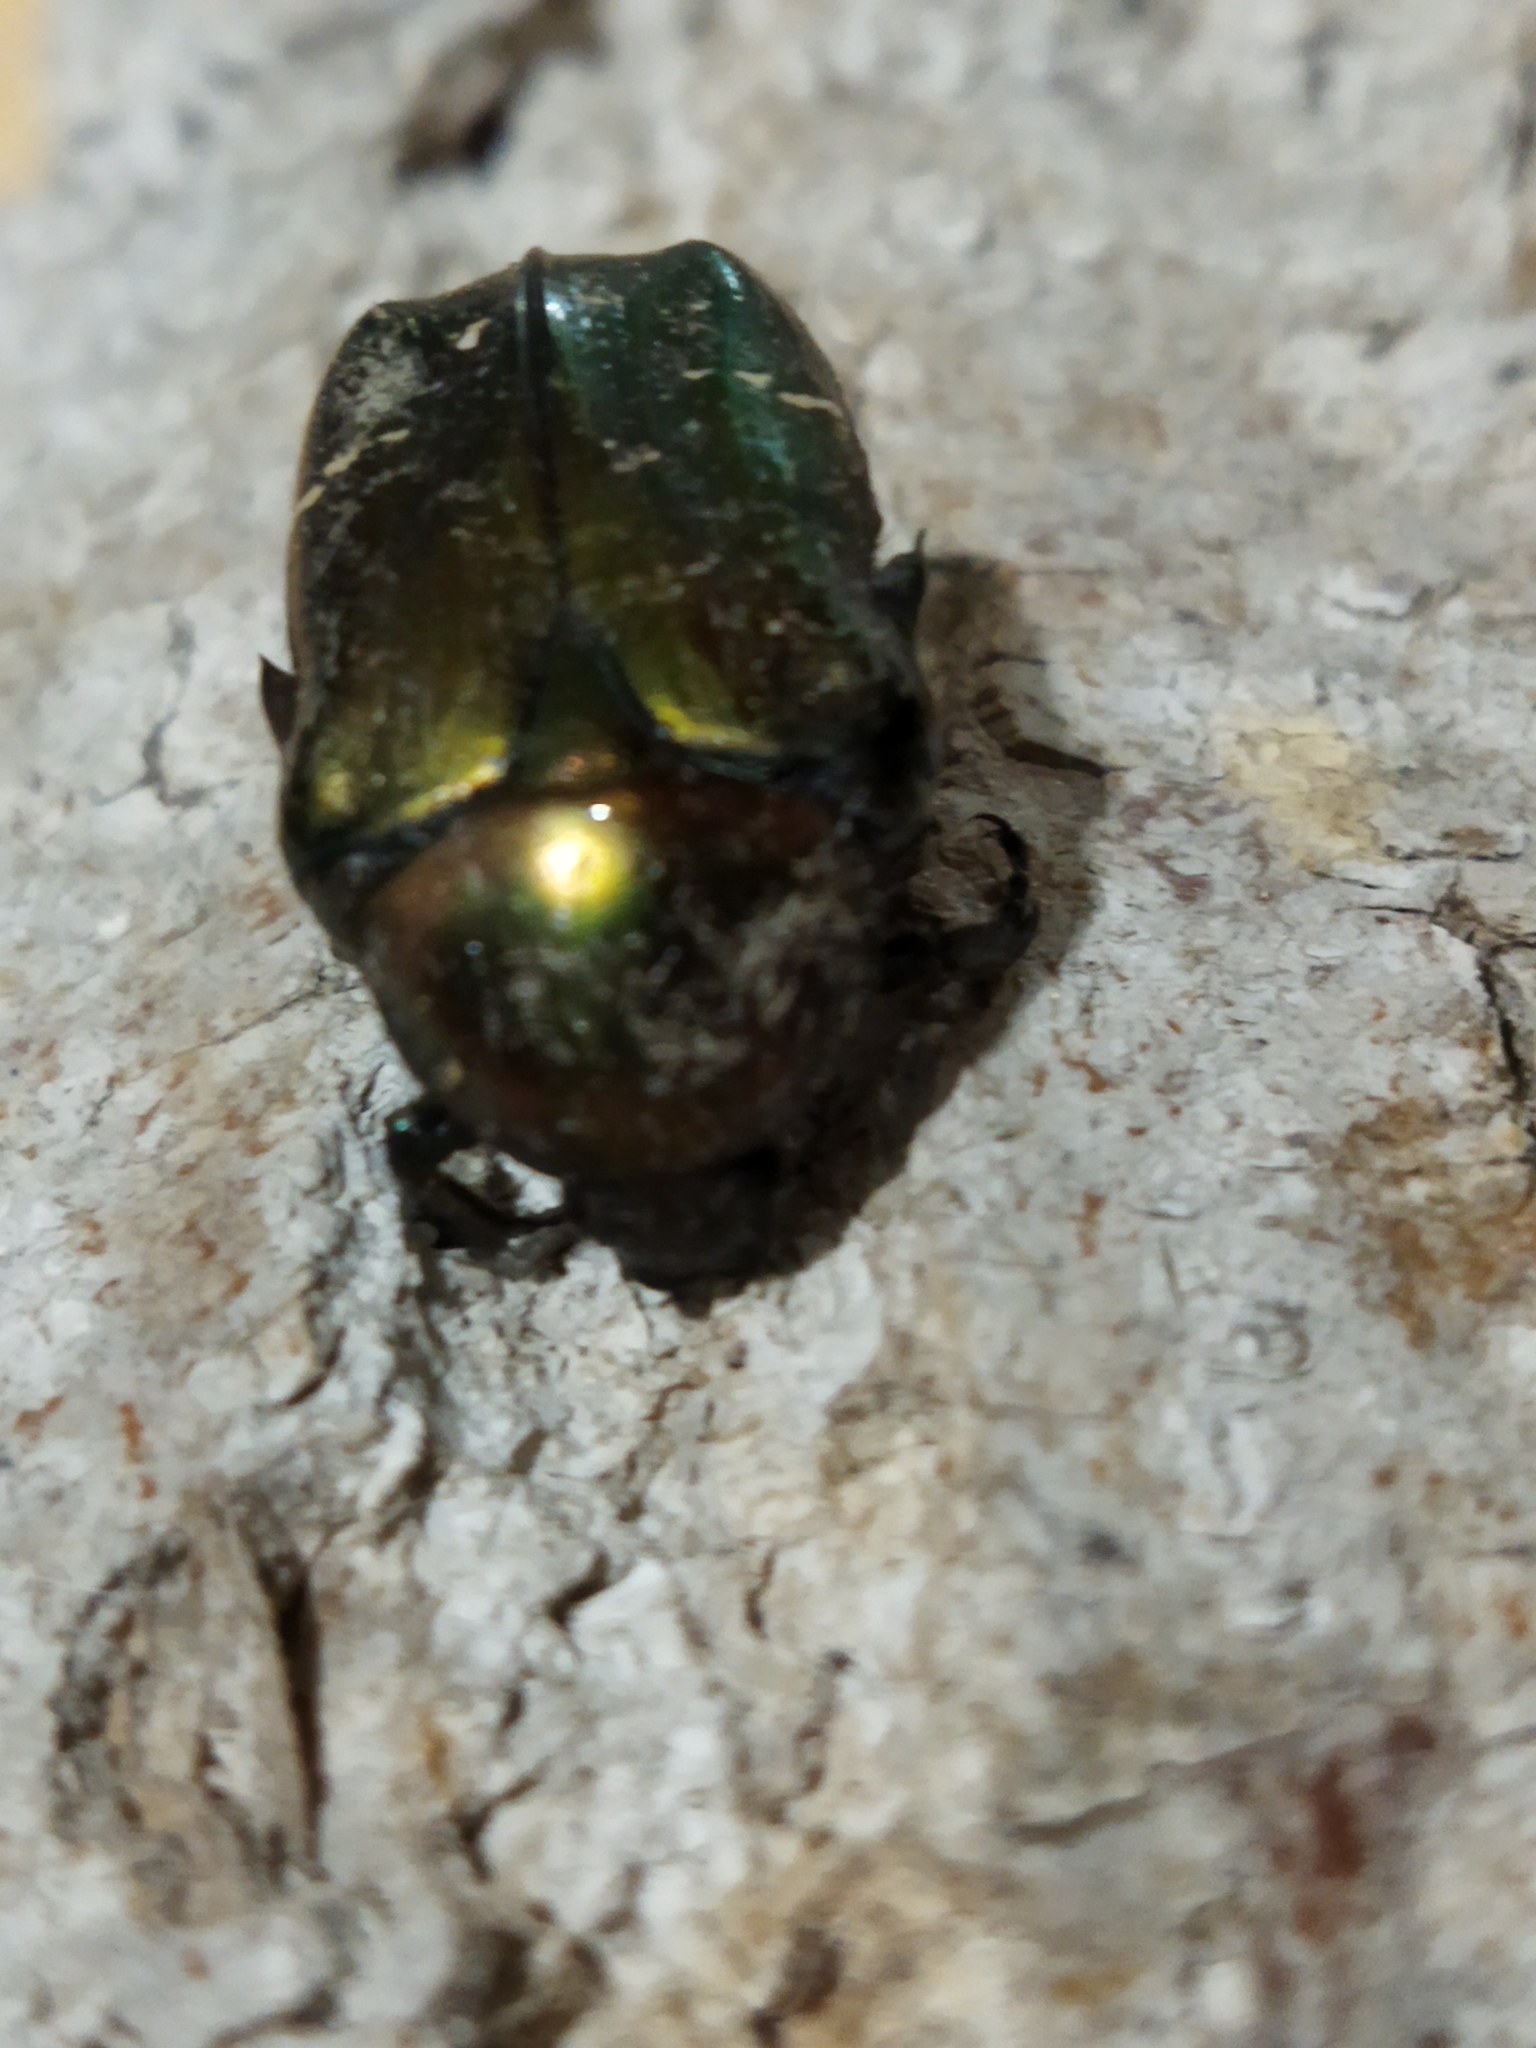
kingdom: Animalia
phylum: Arthropoda
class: Insecta
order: Coleoptera
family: Scarabaeidae
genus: Cetonia
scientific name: Cetonia aurata
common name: Rose chafer
